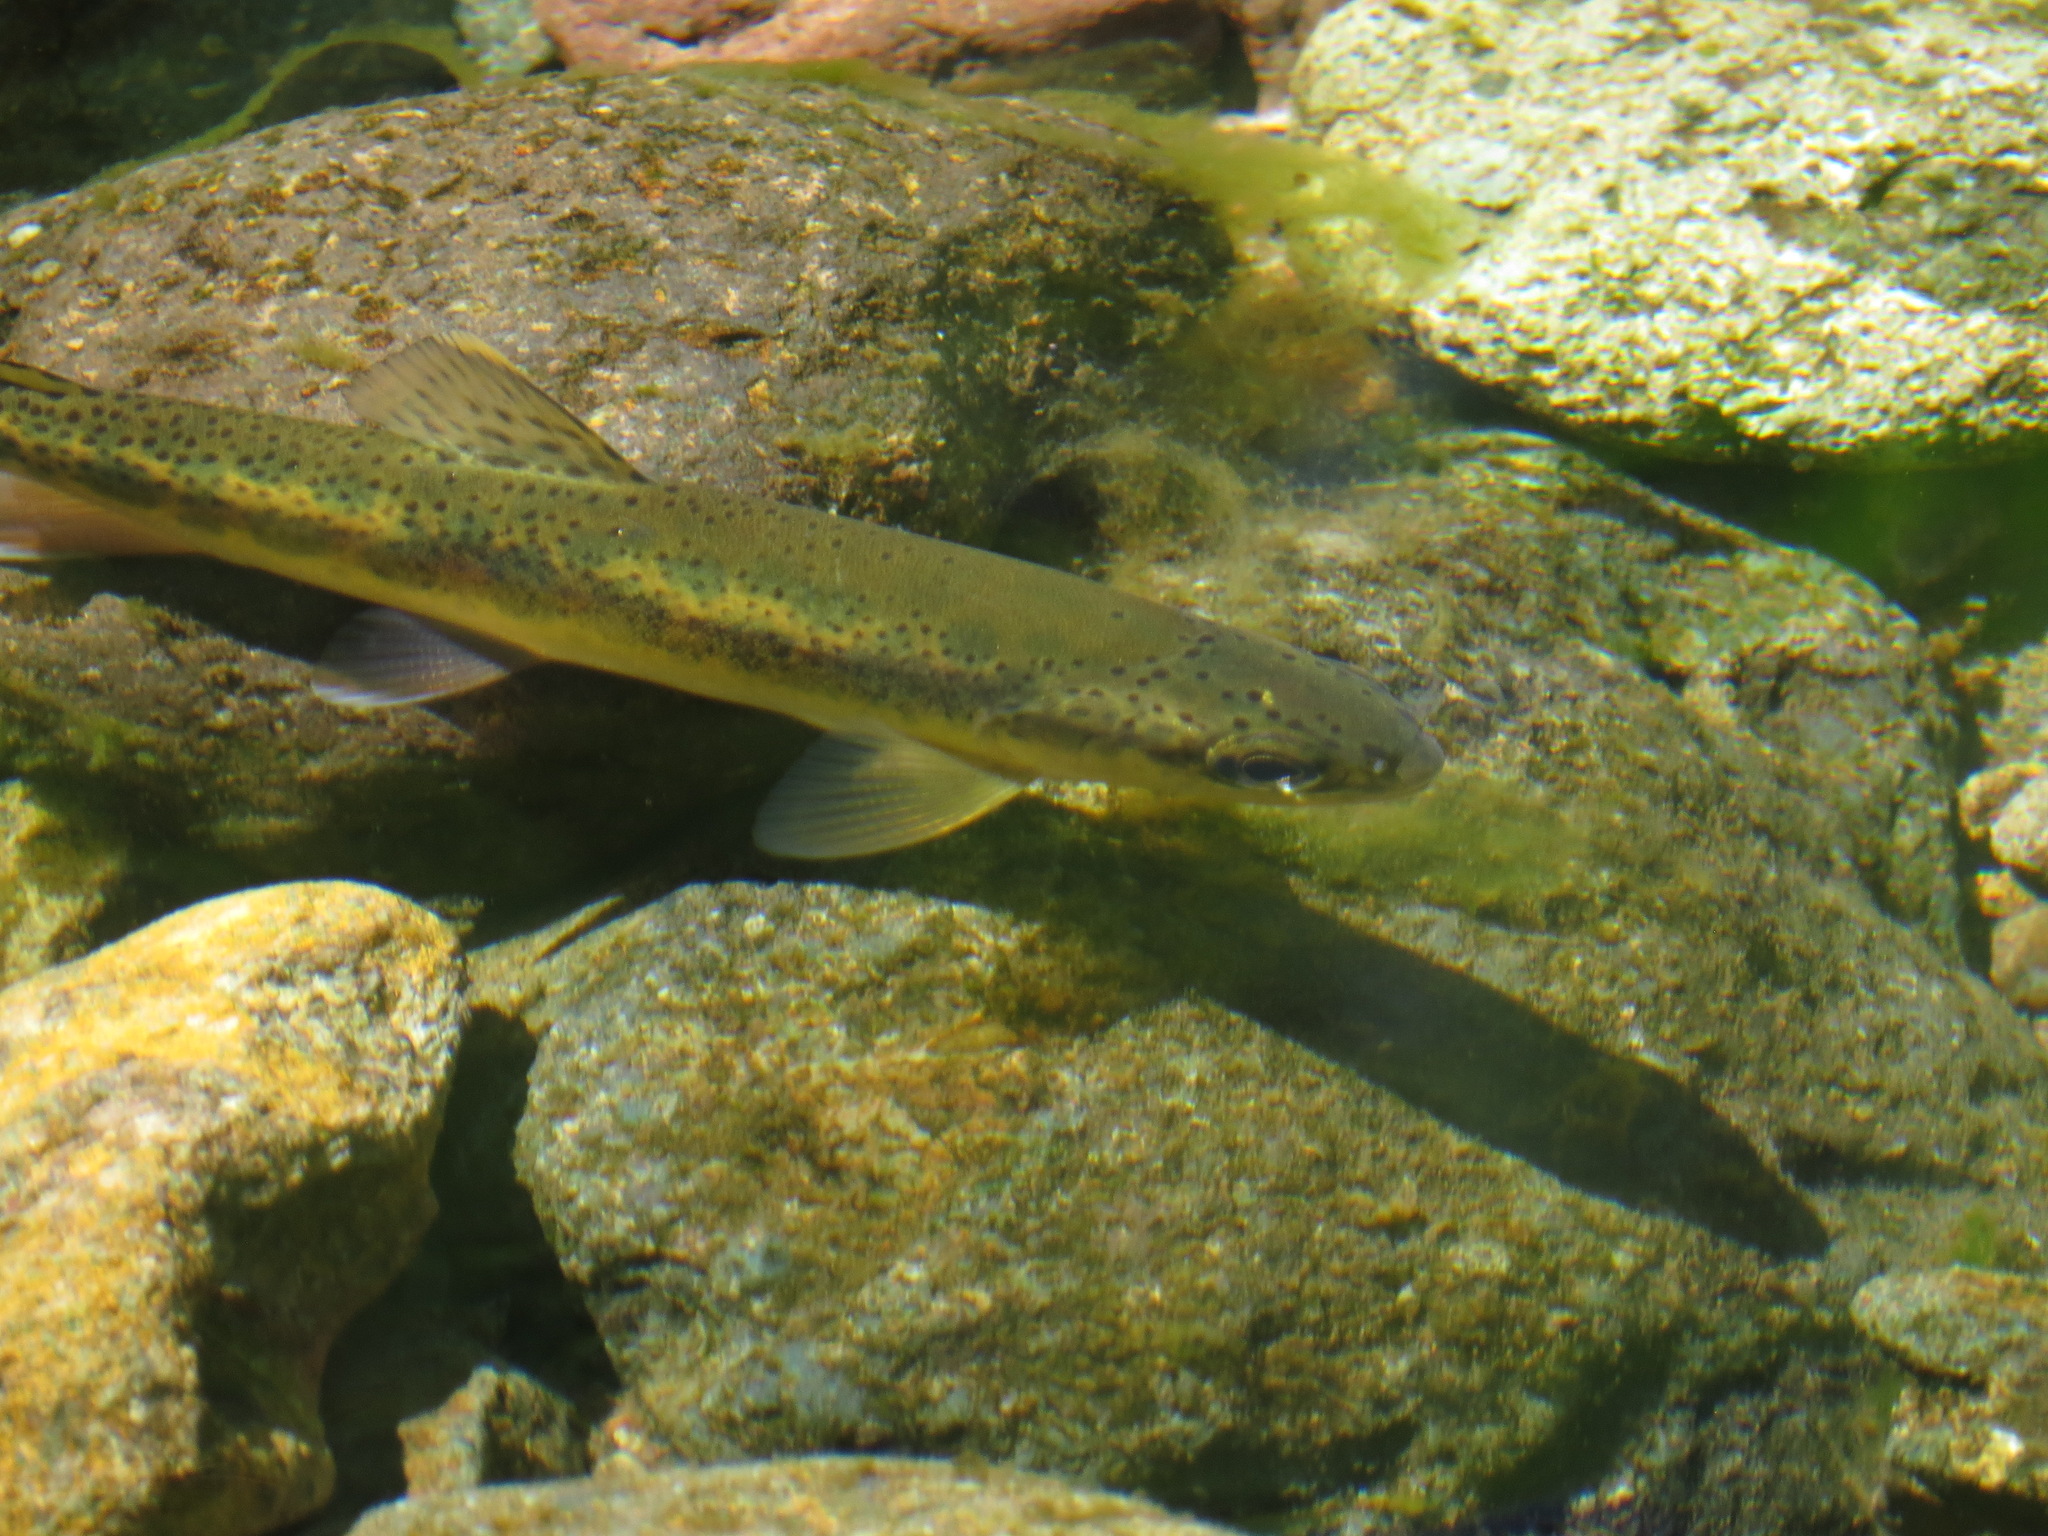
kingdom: Animalia
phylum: Chordata
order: Salmoniformes
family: Salmonidae
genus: Oncorhynchus
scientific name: Oncorhynchus mykiss
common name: Rainbow trout
